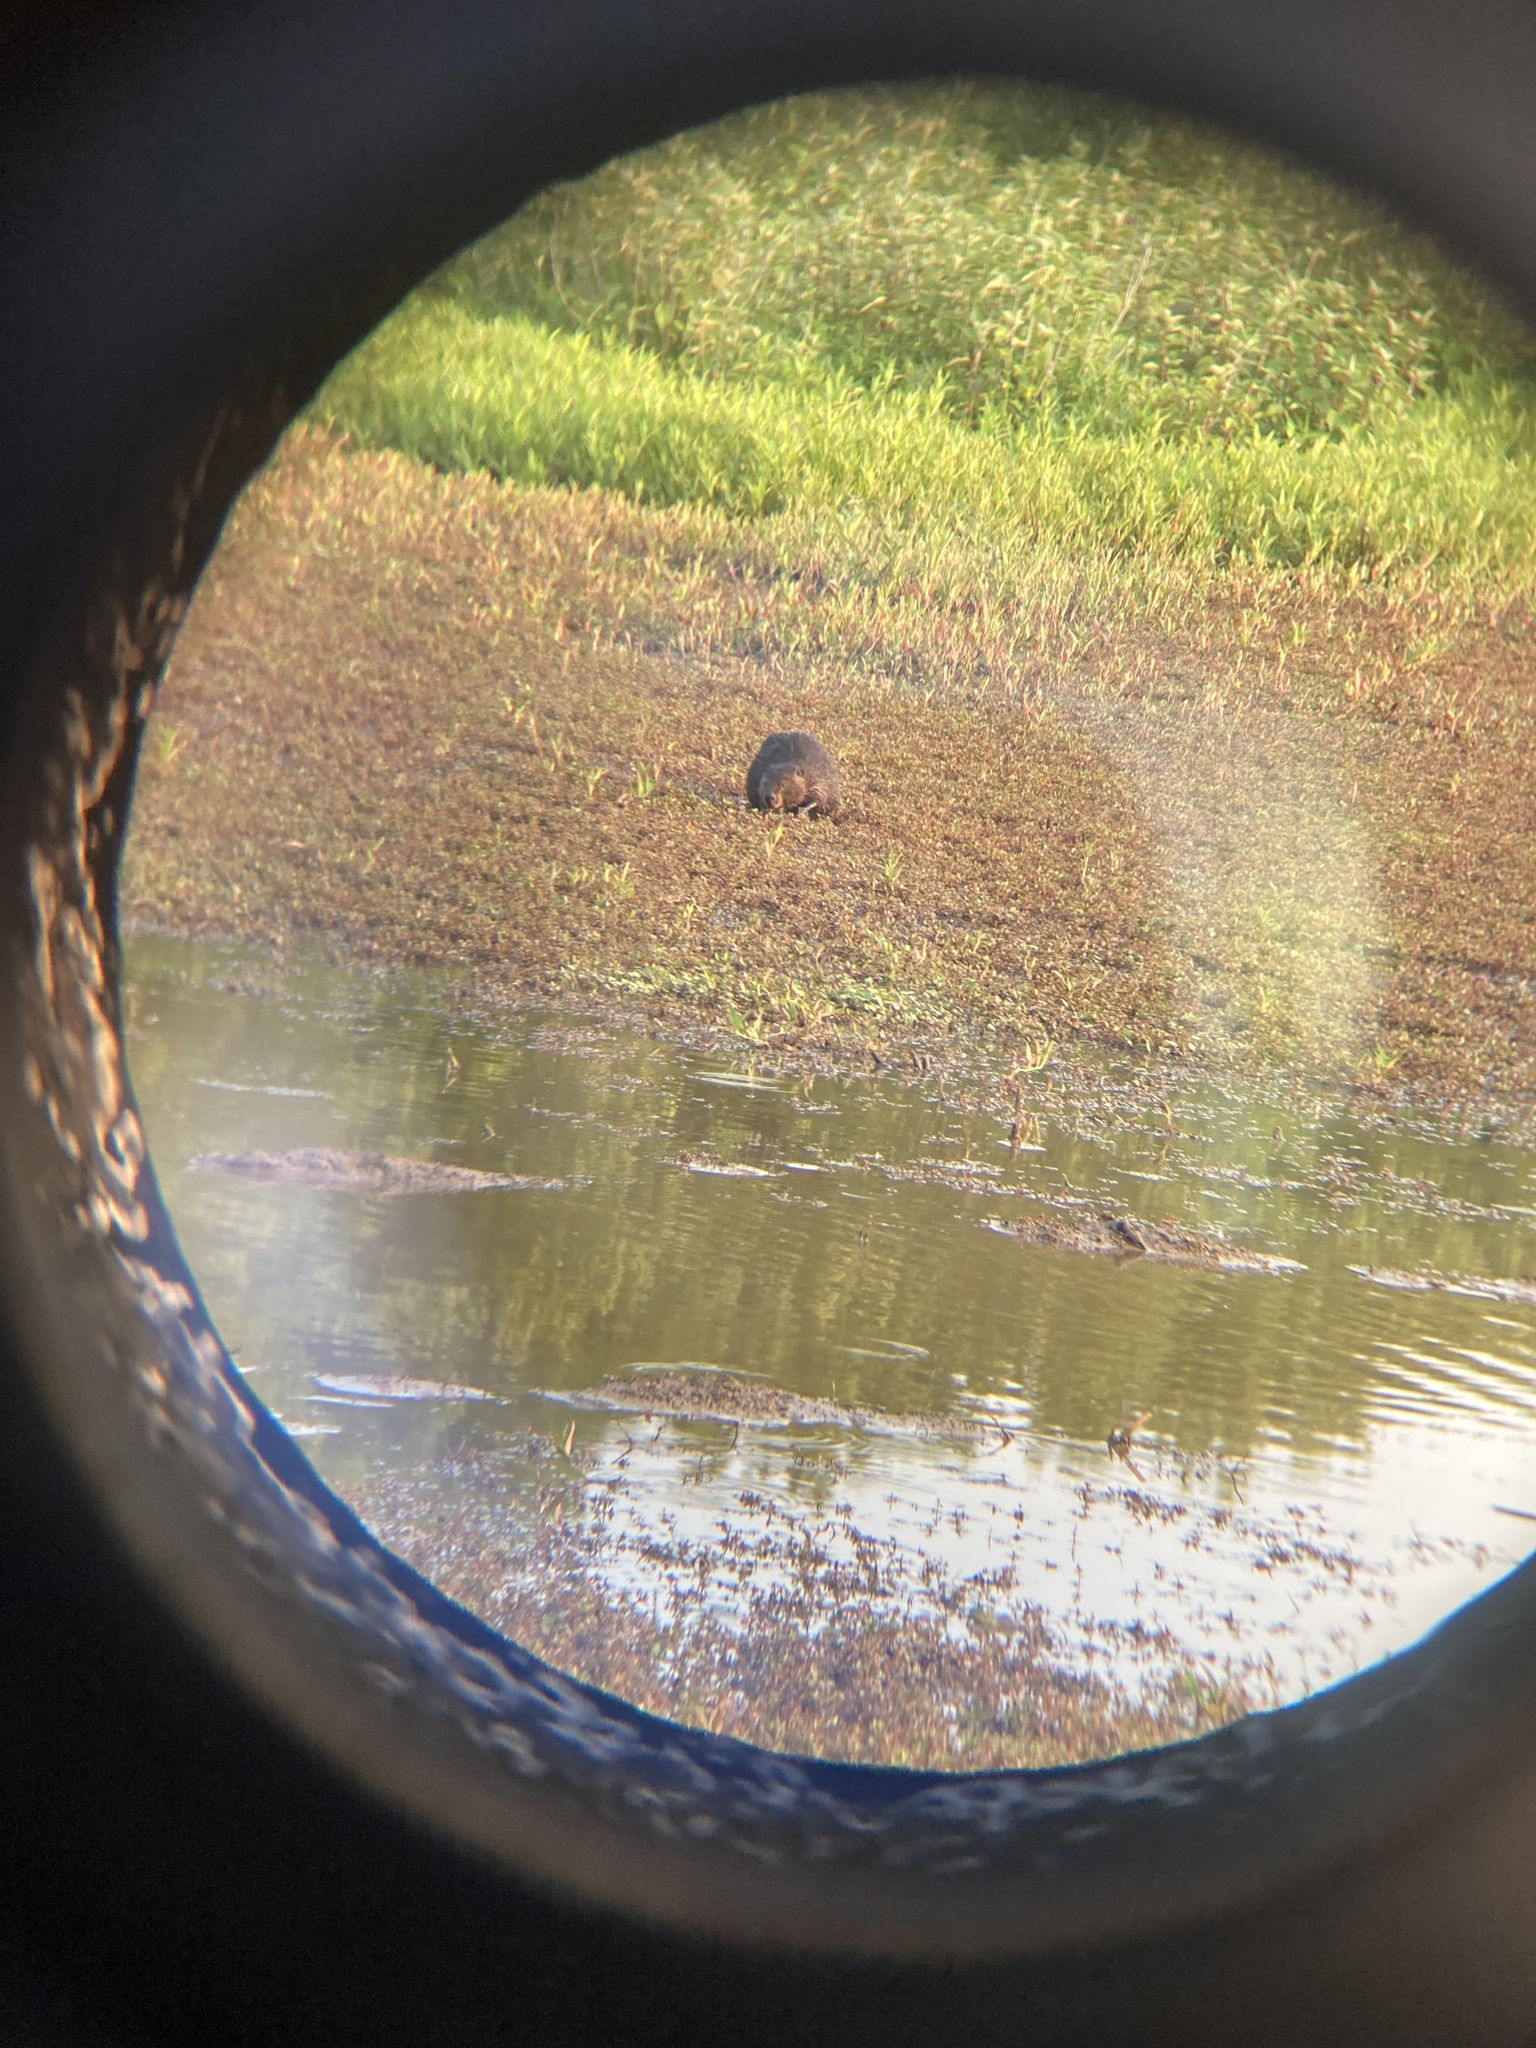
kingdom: Animalia
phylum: Chordata
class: Mammalia
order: Rodentia
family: Castoridae
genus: Castor
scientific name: Castor canadensis
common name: American beaver
